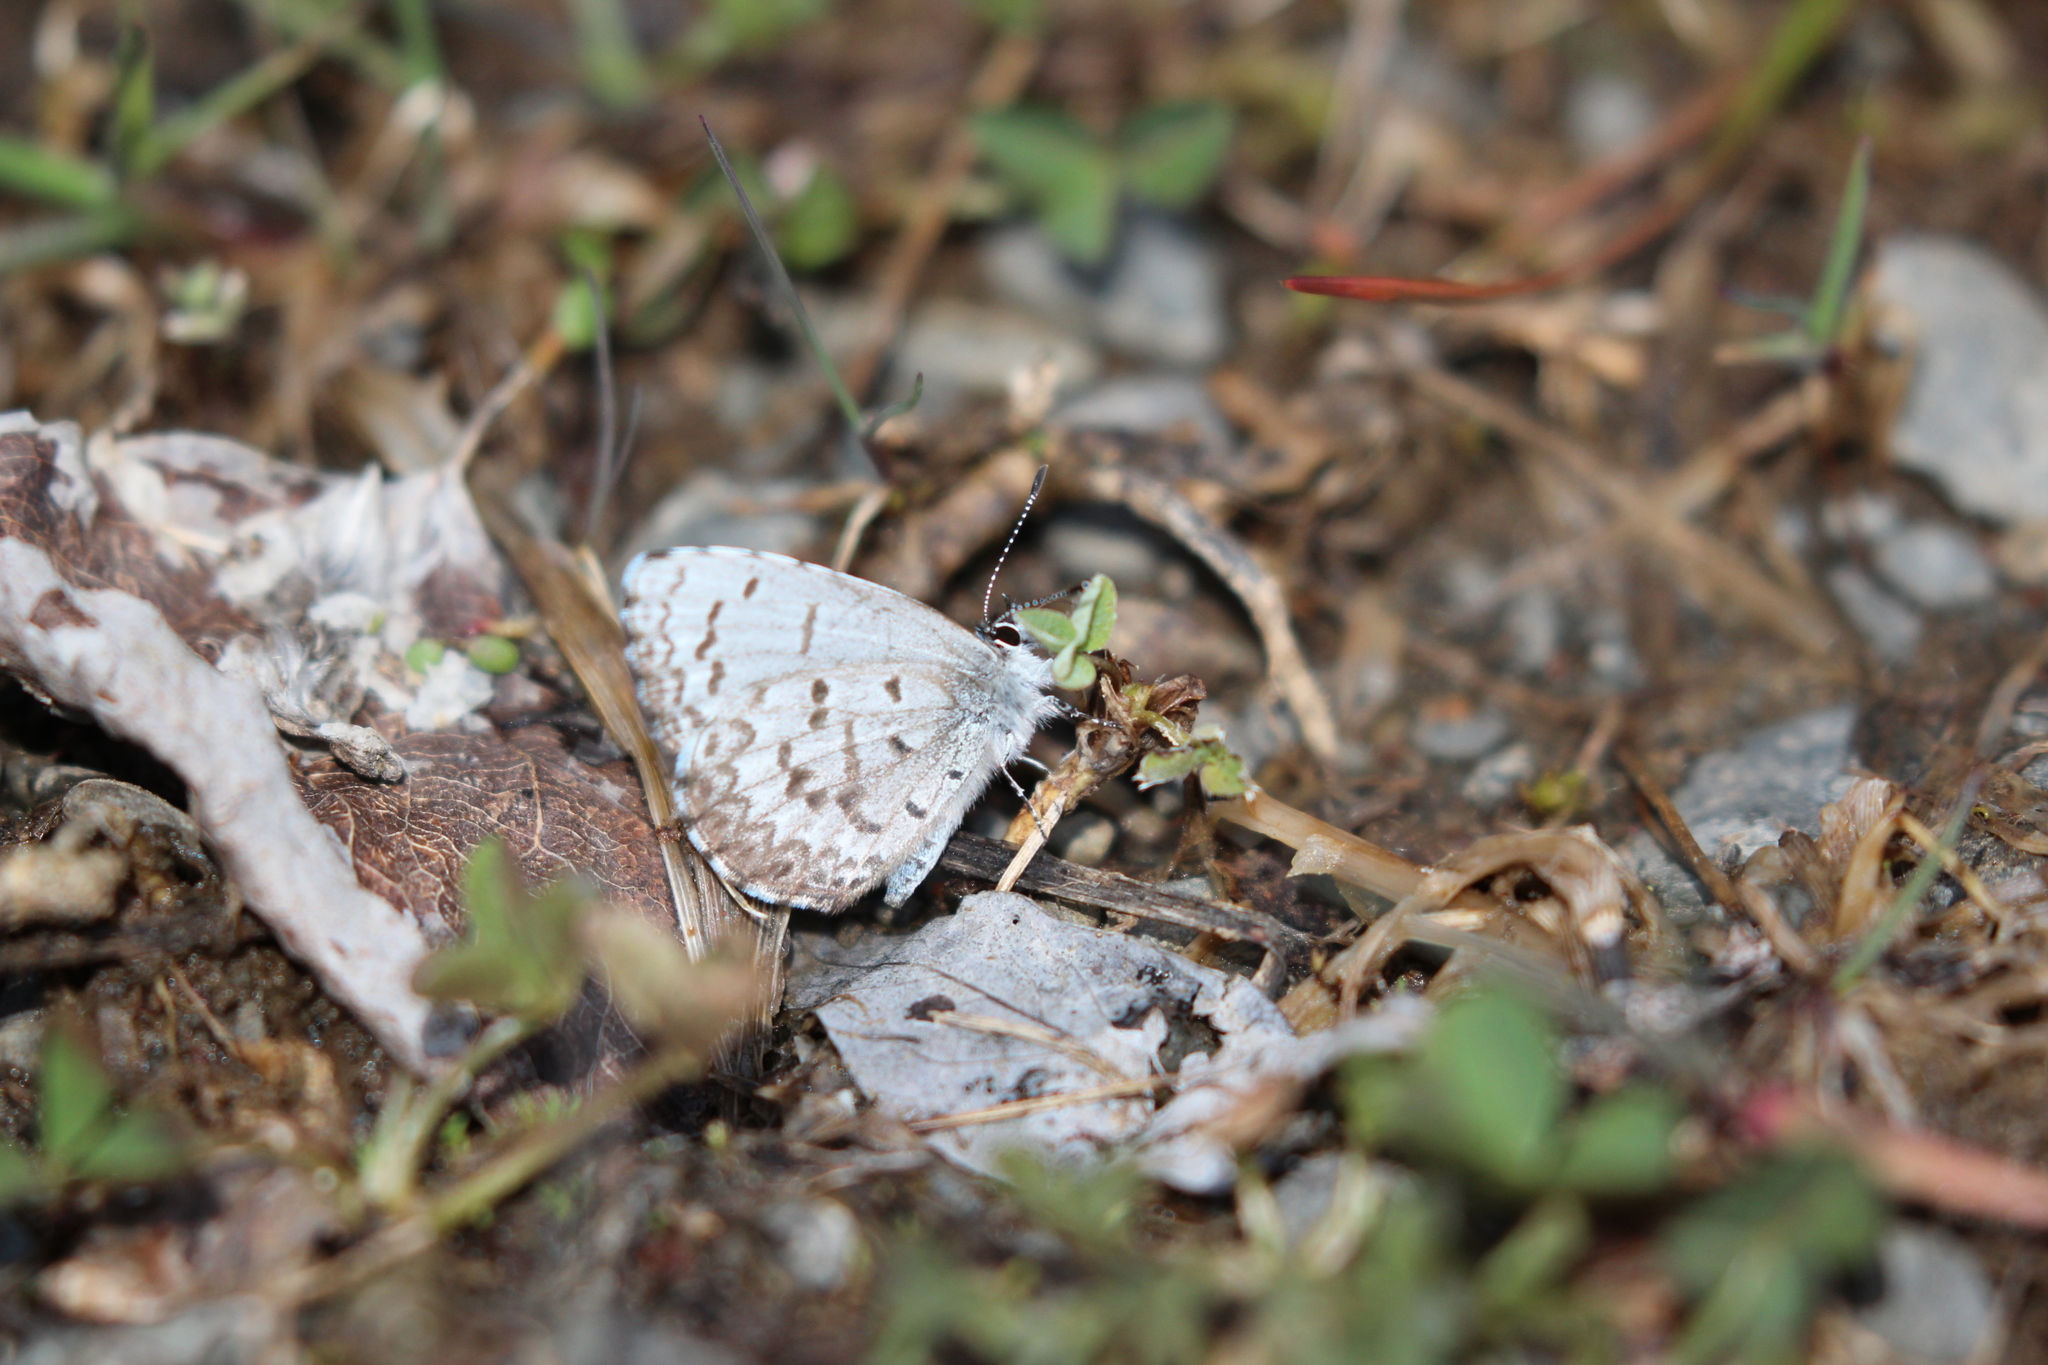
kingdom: Animalia
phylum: Arthropoda
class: Insecta
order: Lepidoptera
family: Lycaenidae
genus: Celastrina
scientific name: Celastrina lucia
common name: Lucia azure
